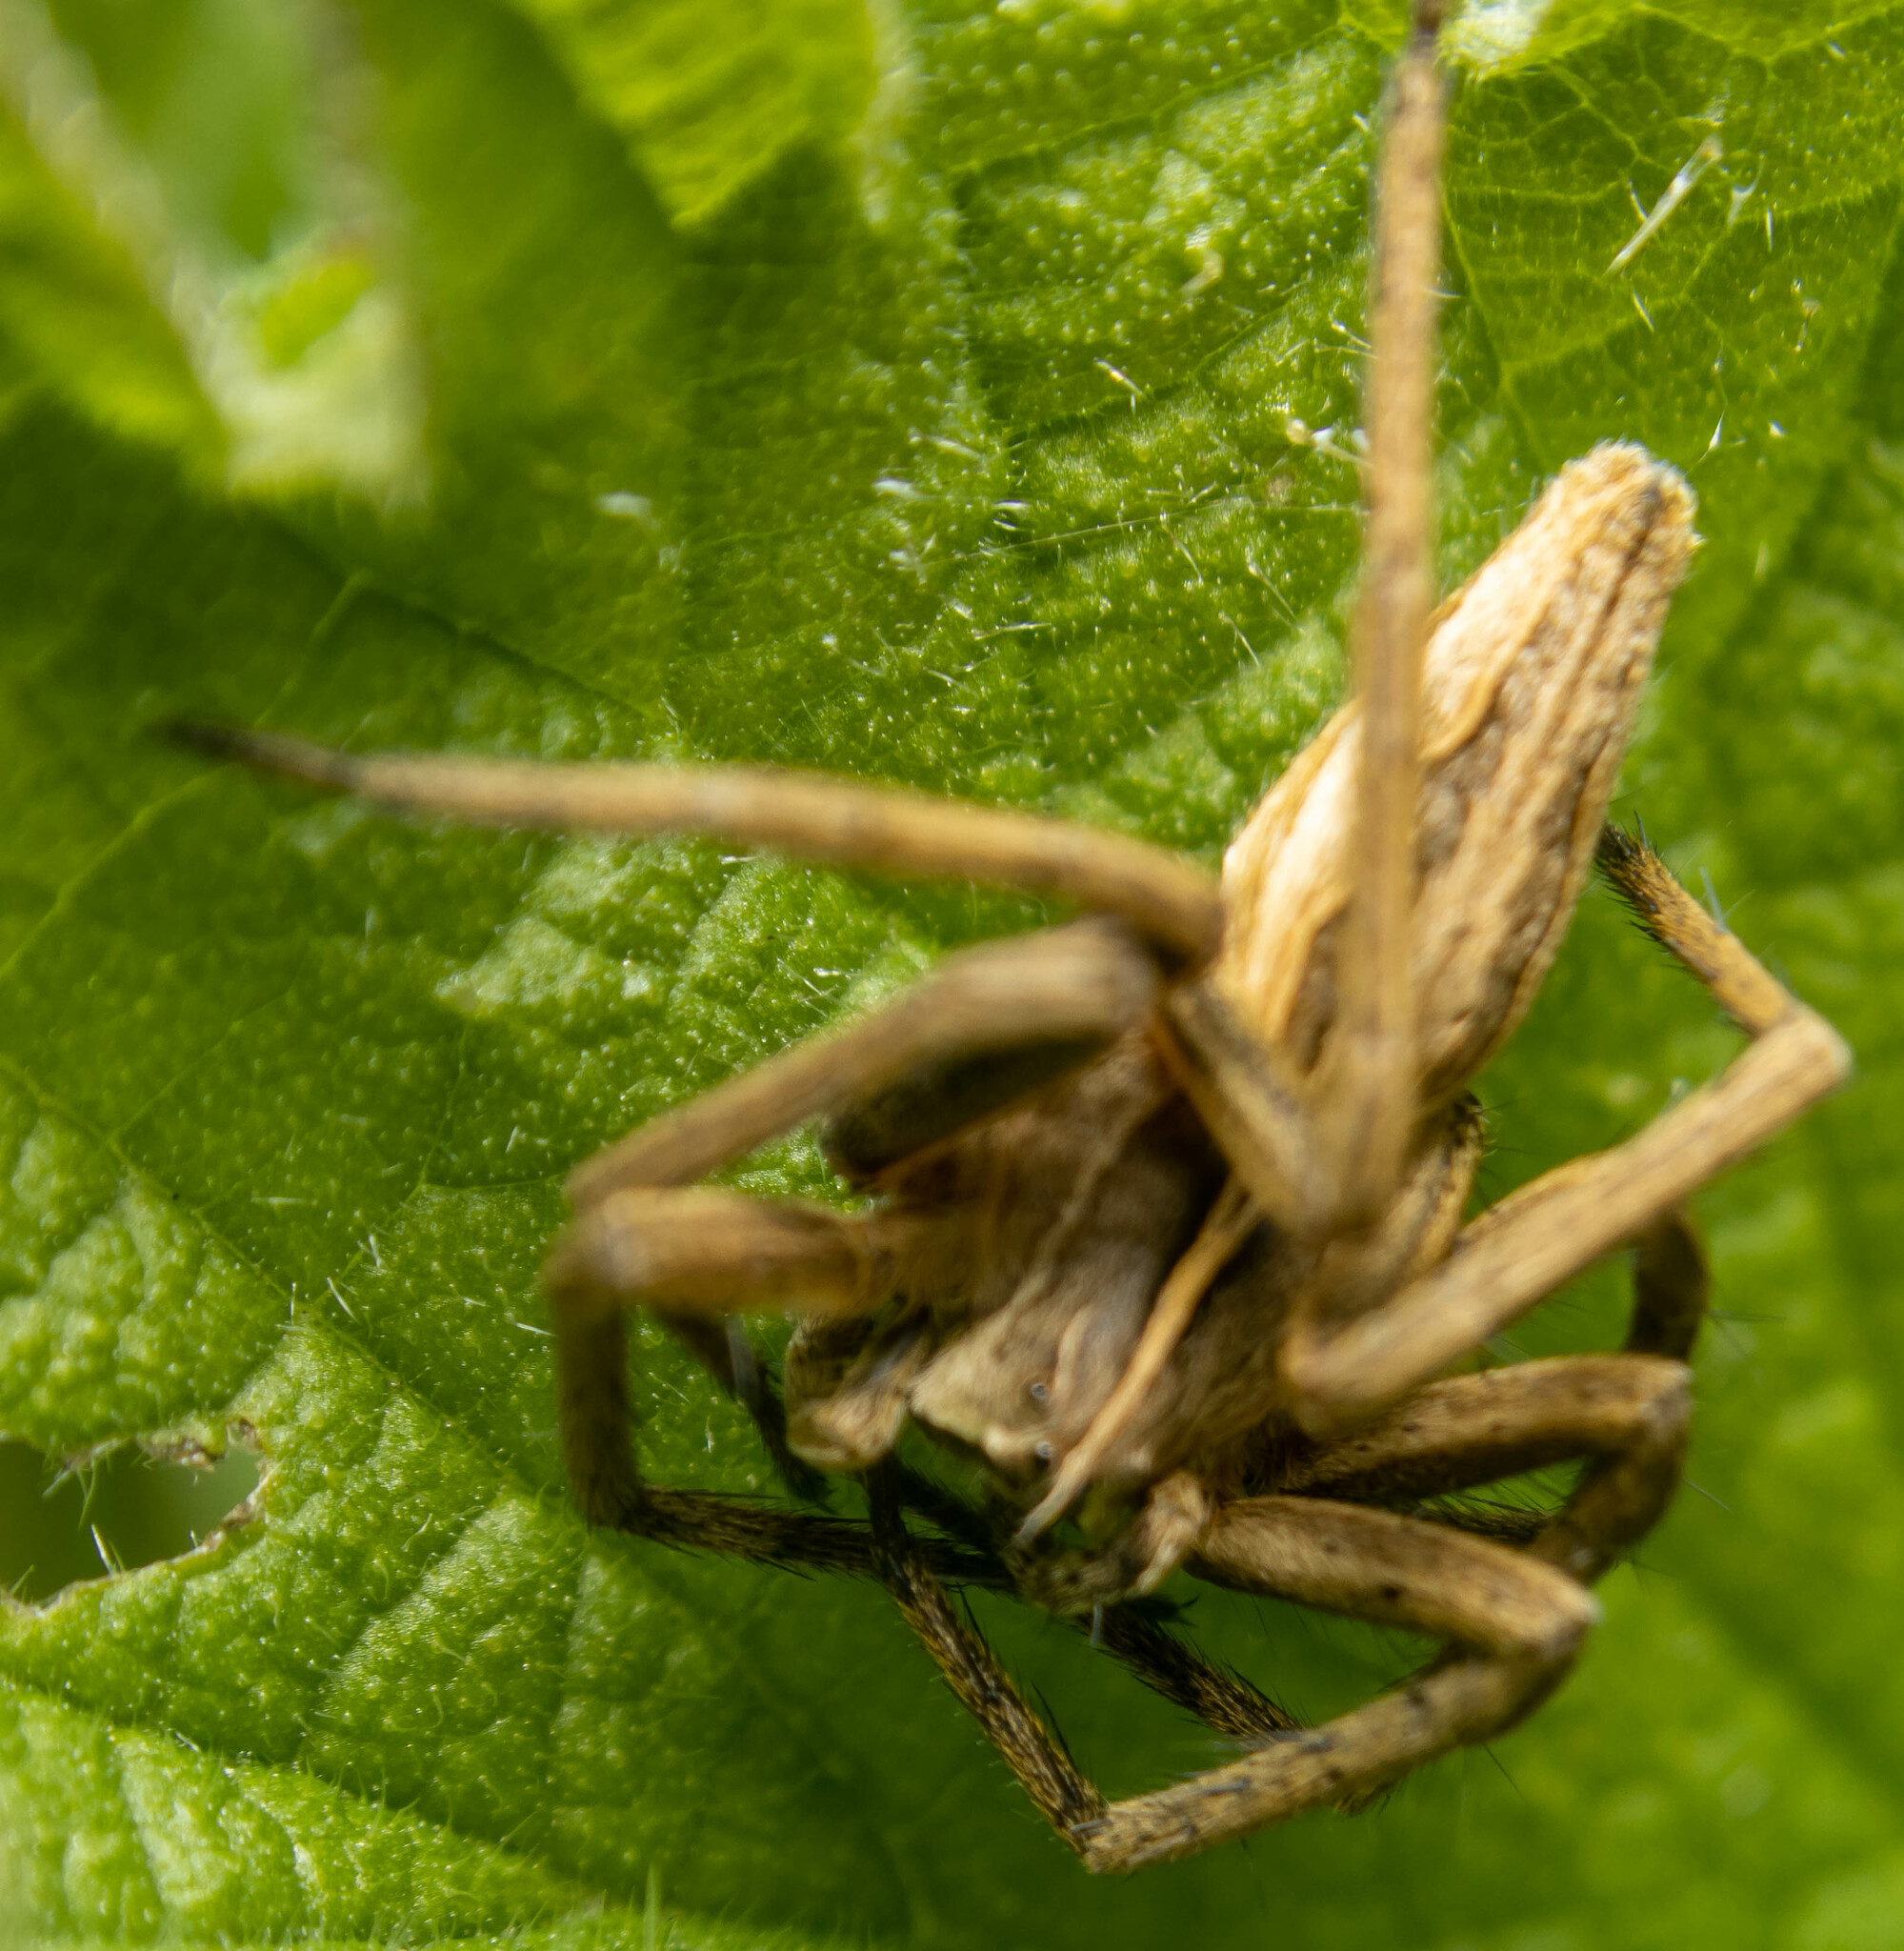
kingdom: Animalia
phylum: Arthropoda
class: Arachnida
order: Araneae
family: Pisauridae
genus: Pisaura
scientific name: Pisaura mirabilis
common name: Tent spider
